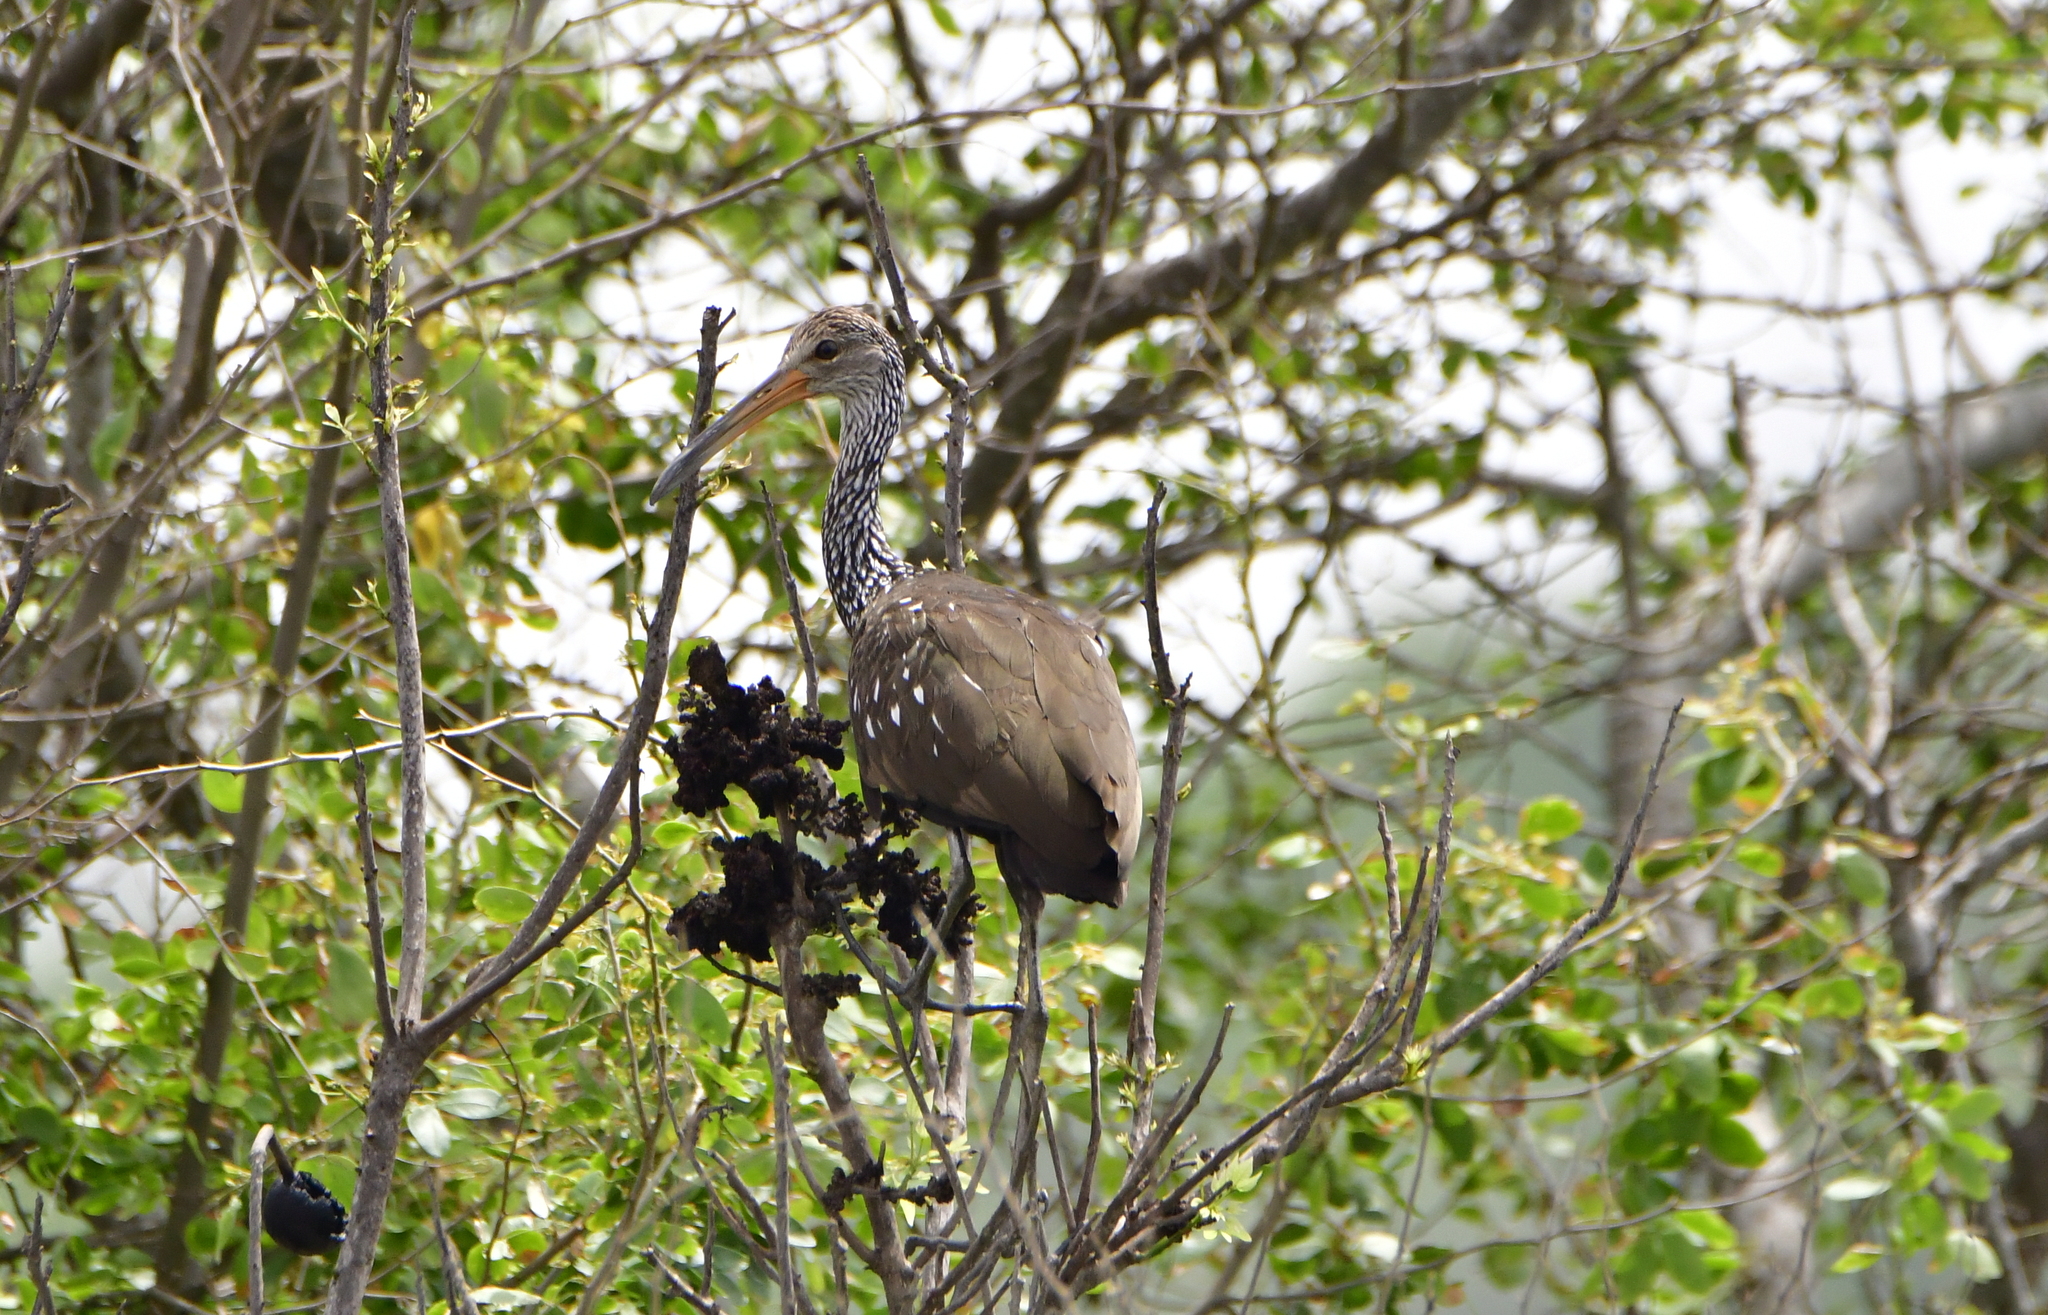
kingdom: Animalia
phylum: Chordata
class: Aves
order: Gruiformes
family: Aramidae
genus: Aramus
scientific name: Aramus guarauna
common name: Limpkin
